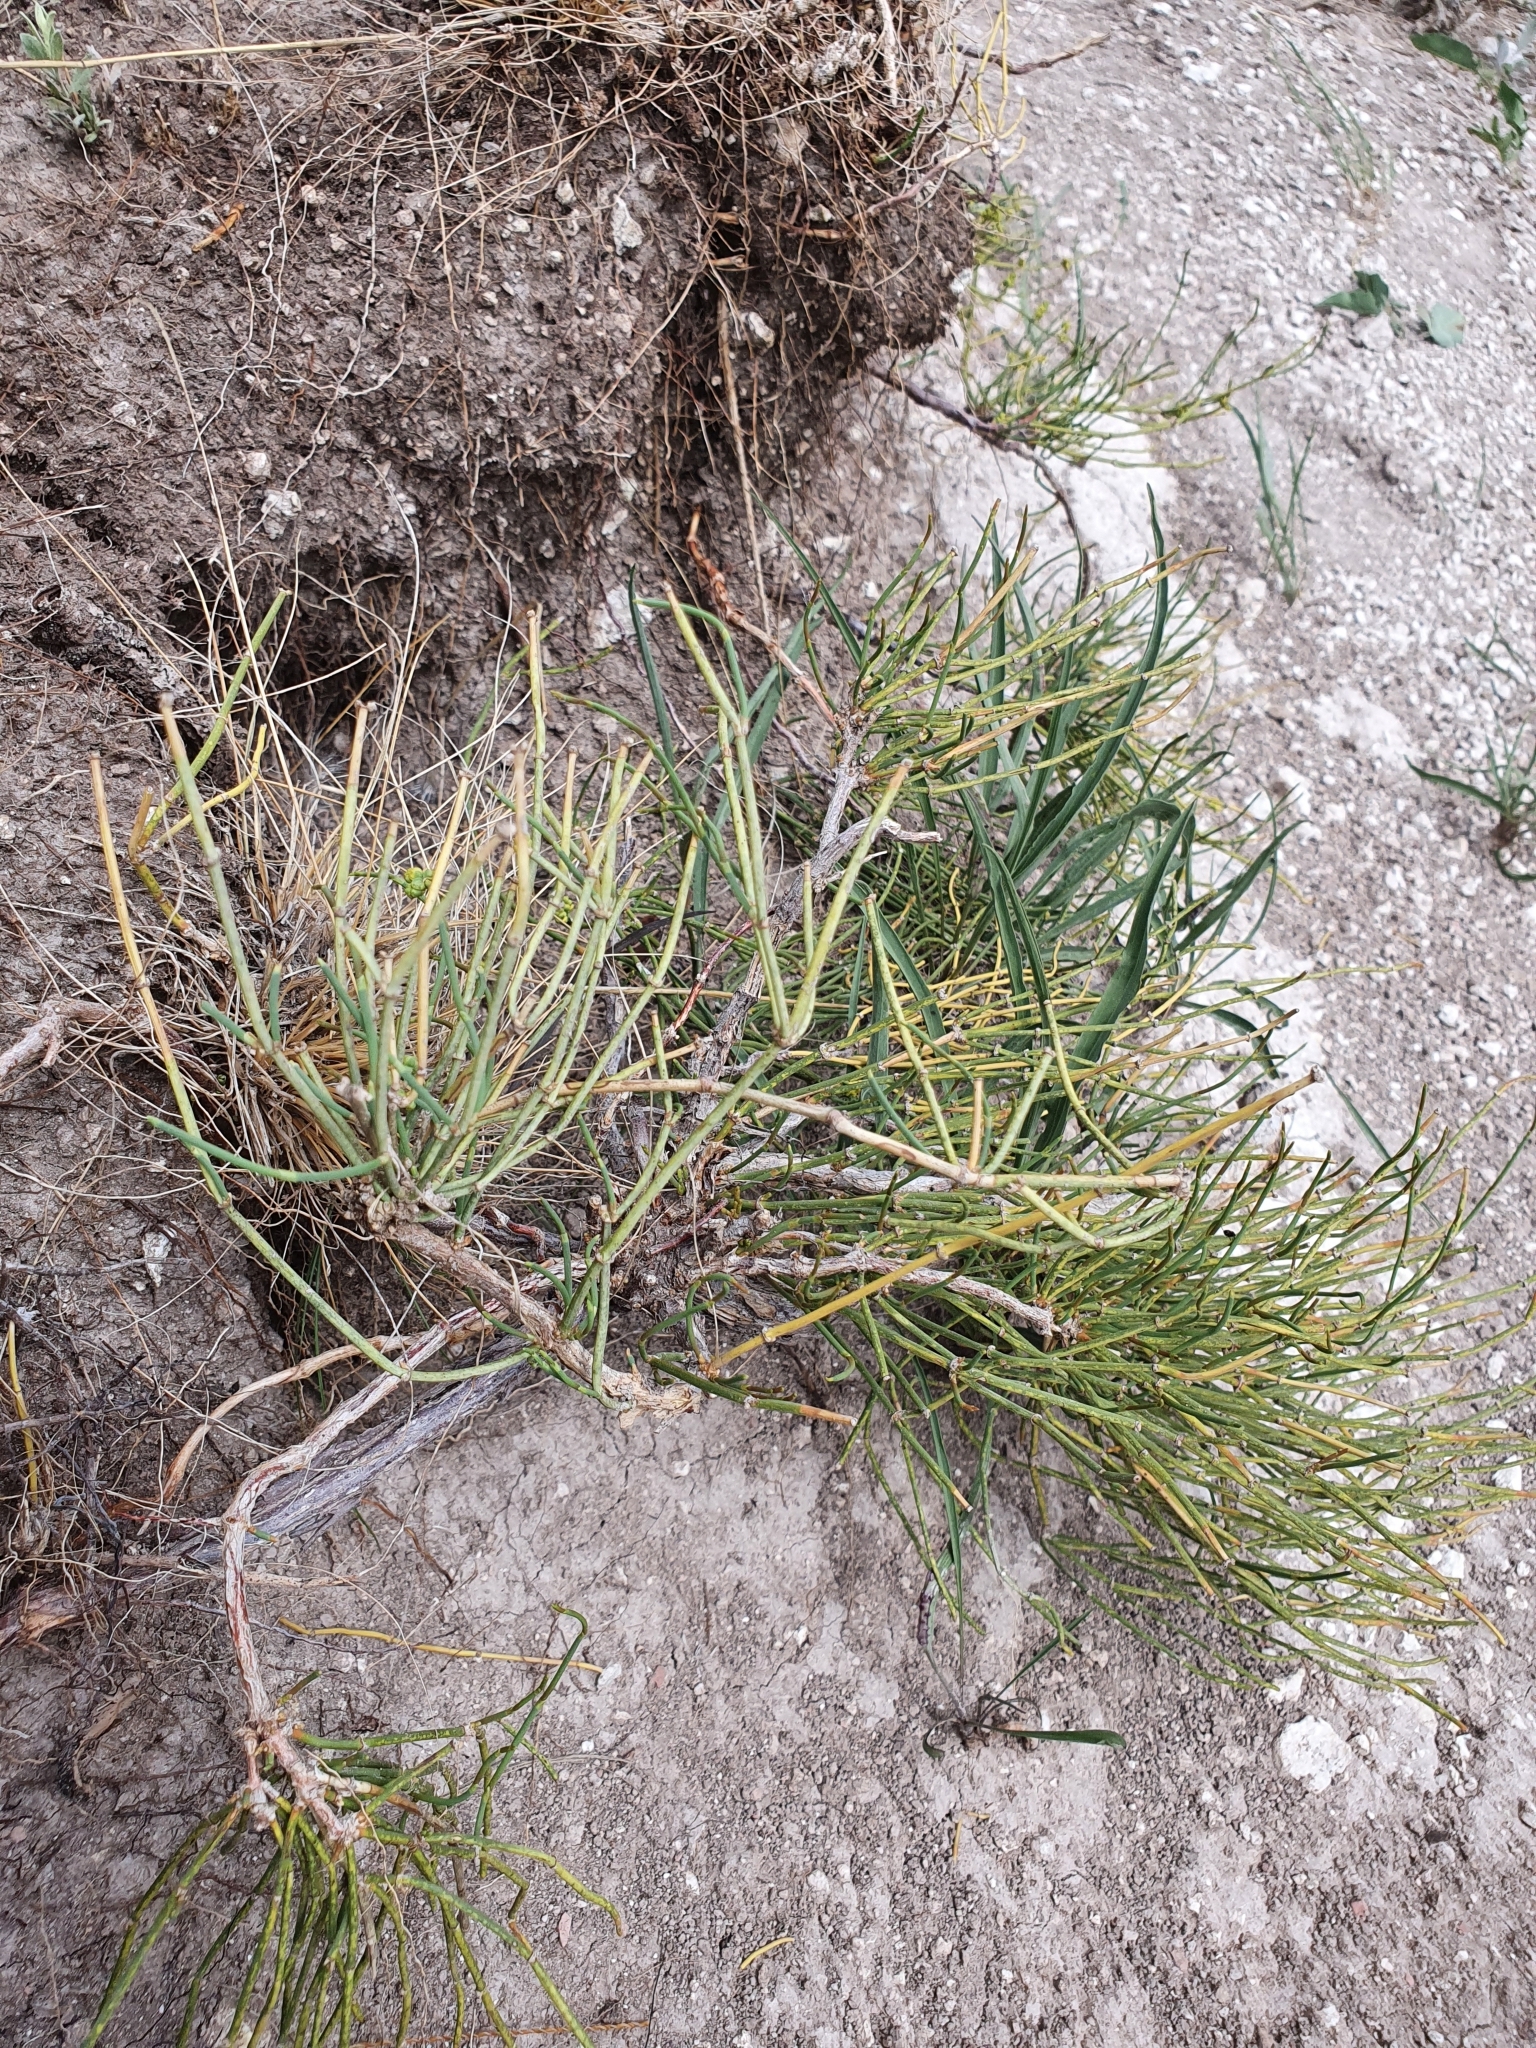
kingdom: Plantae
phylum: Tracheophyta
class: Gnetopsida
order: Ephedrales
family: Ephedraceae
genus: Ephedra
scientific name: Ephedra distachya
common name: Sea grape
